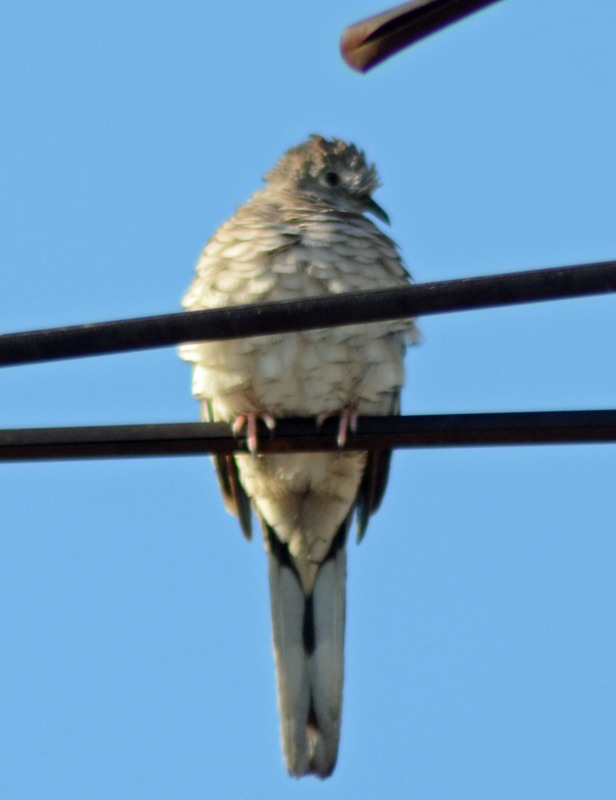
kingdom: Animalia
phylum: Chordata
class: Aves
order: Columbiformes
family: Columbidae
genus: Columbina
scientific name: Columbina inca
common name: Inca dove
